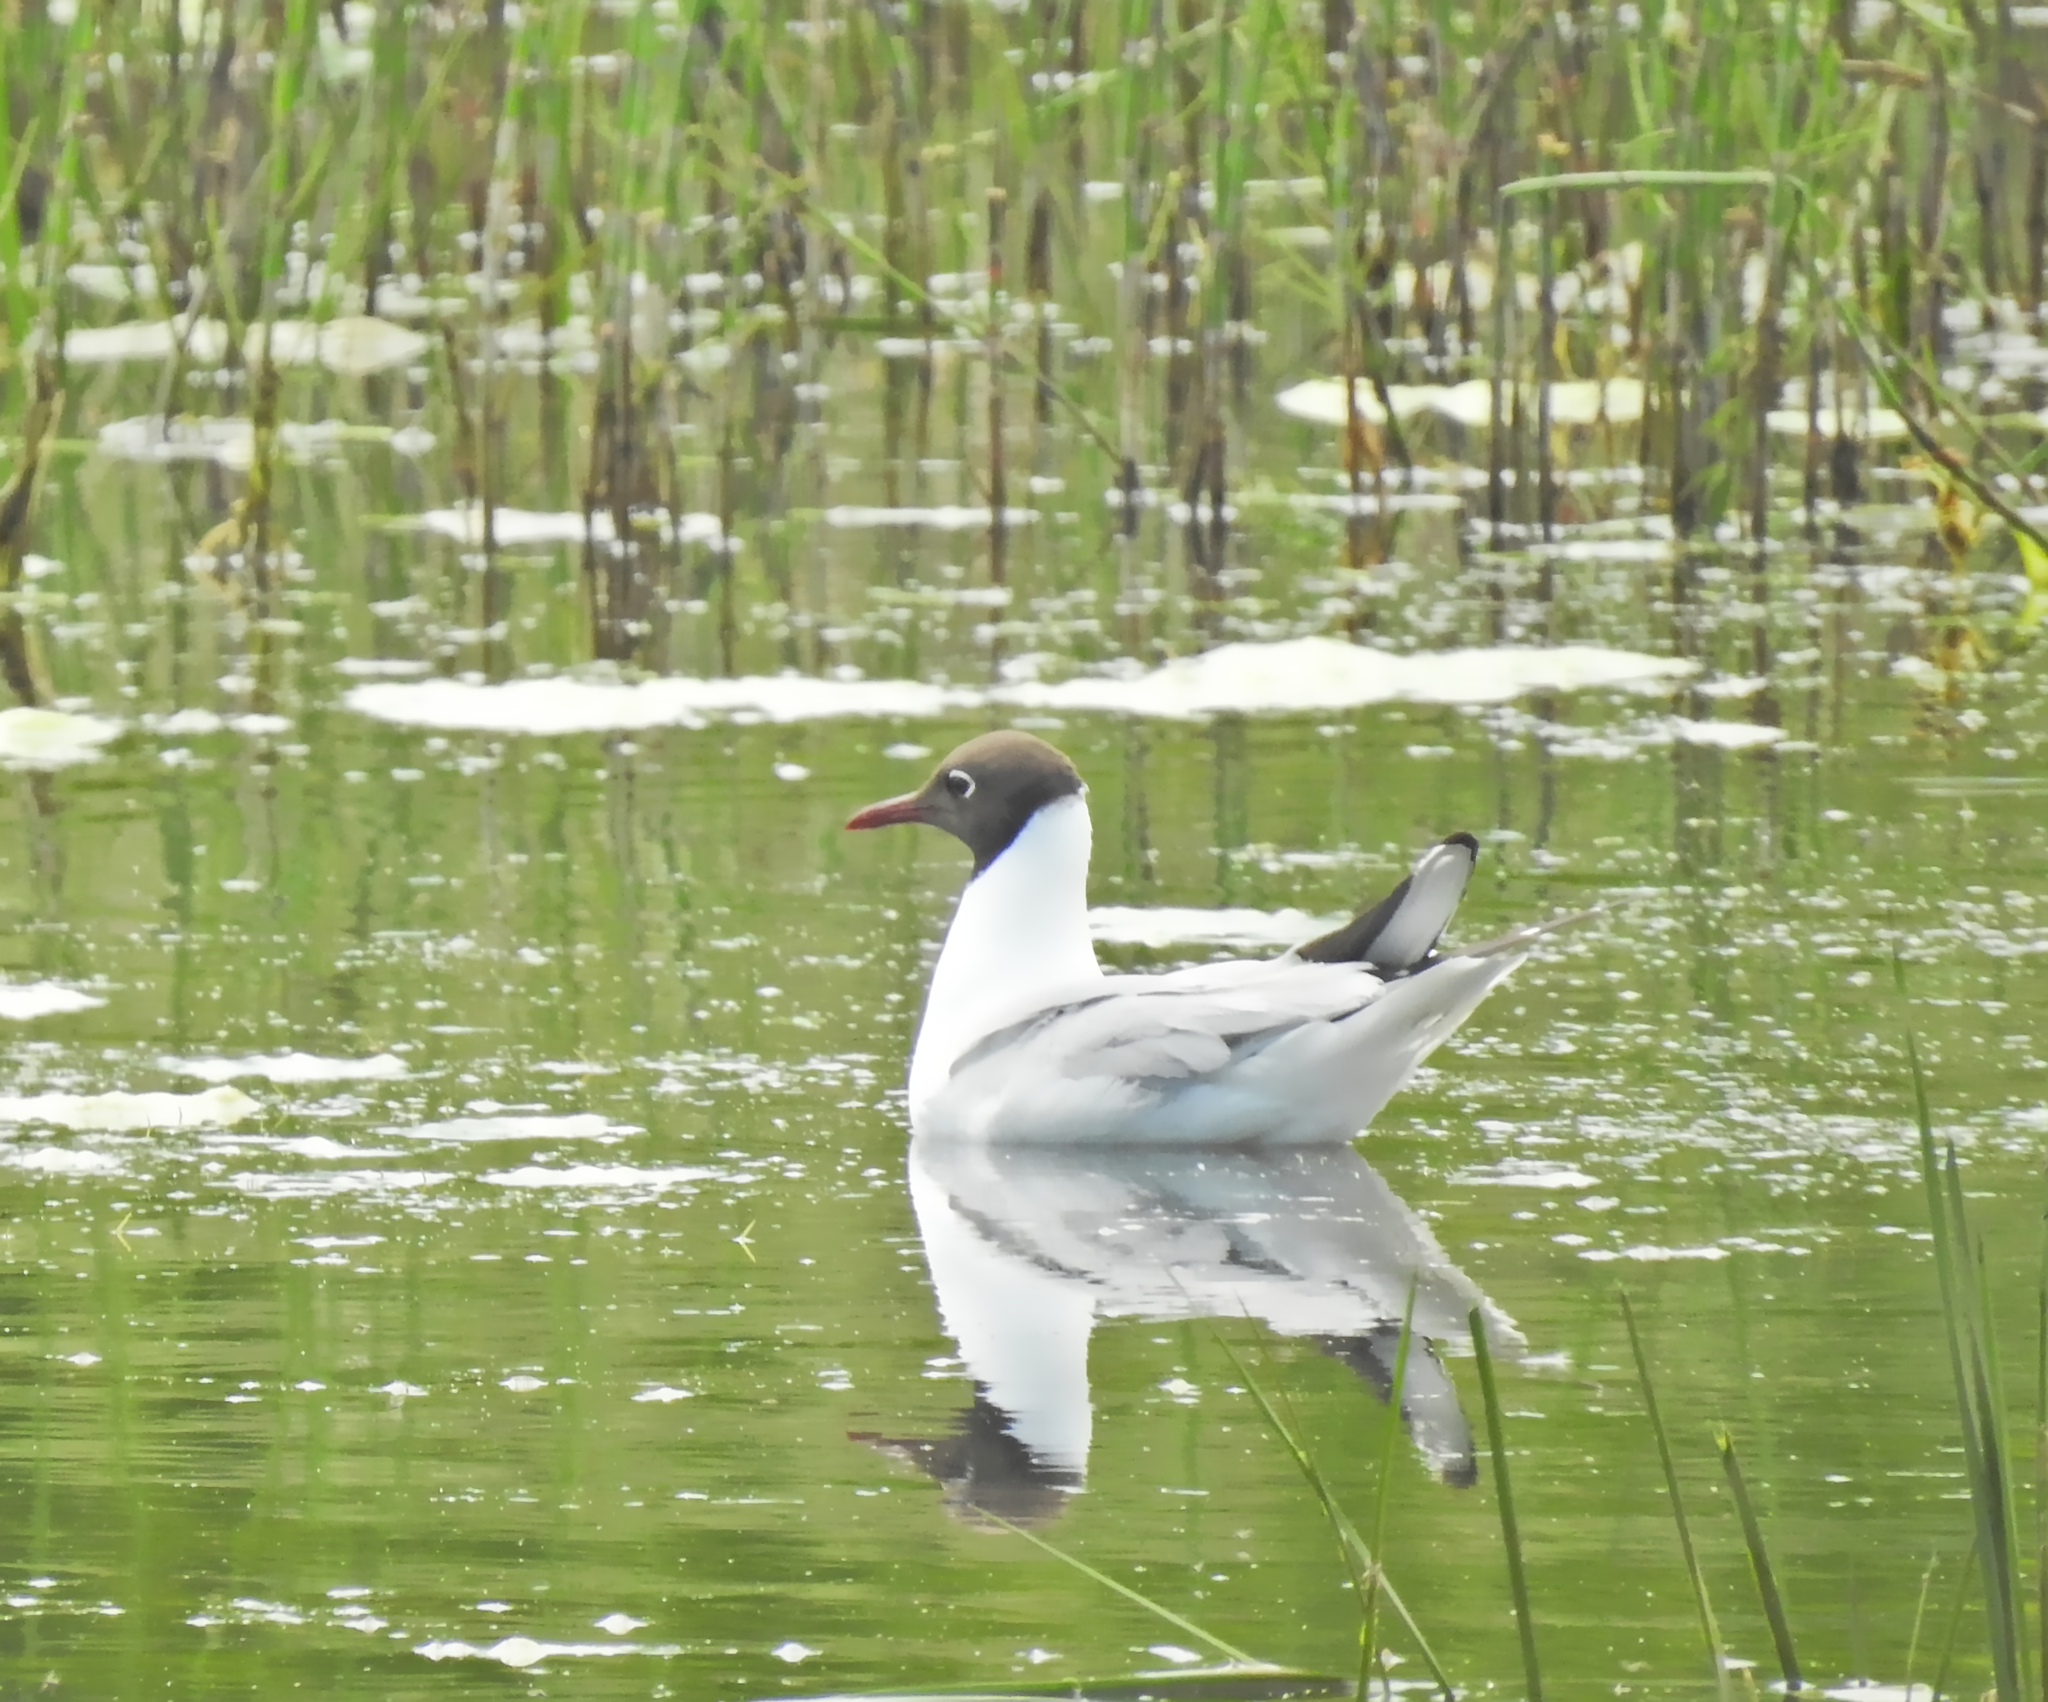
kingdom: Animalia
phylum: Chordata
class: Aves
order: Charadriiformes
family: Laridae
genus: Chroicocephalus
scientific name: Chroicocephalus ridibundus
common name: Black-headed gull
